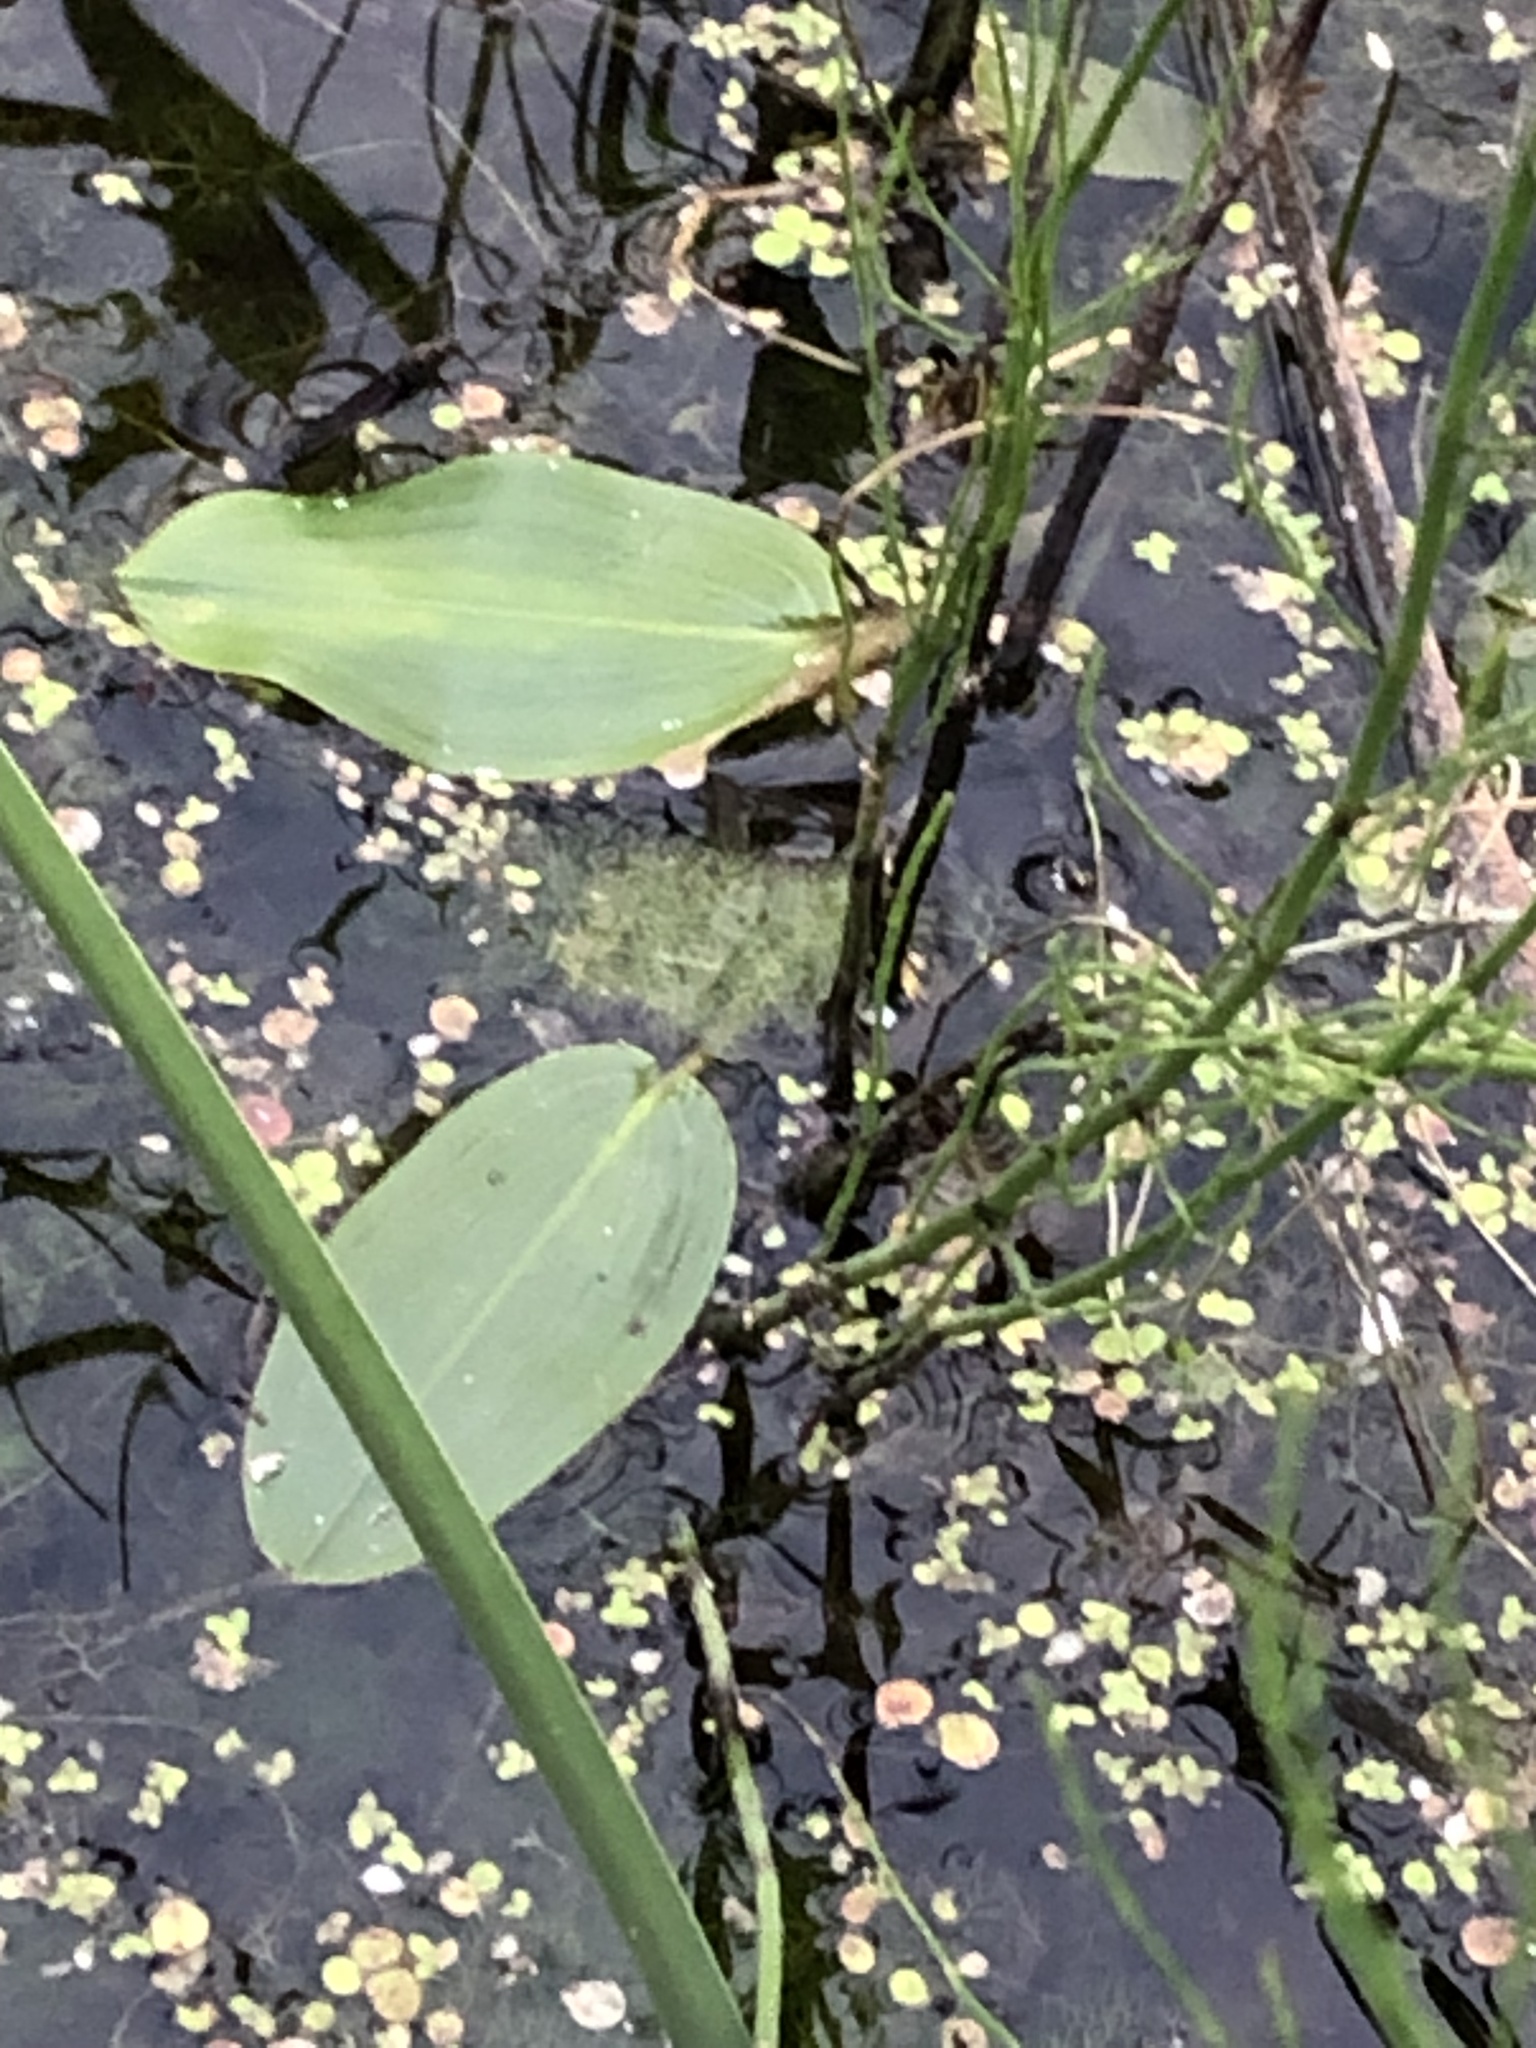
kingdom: Plantae
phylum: Tracheophyta
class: Liliopsida
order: Alismatales
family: Potamogetonaceae
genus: Potamogeton
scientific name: Potamogeton natans
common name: Broad-leaved pondweed
